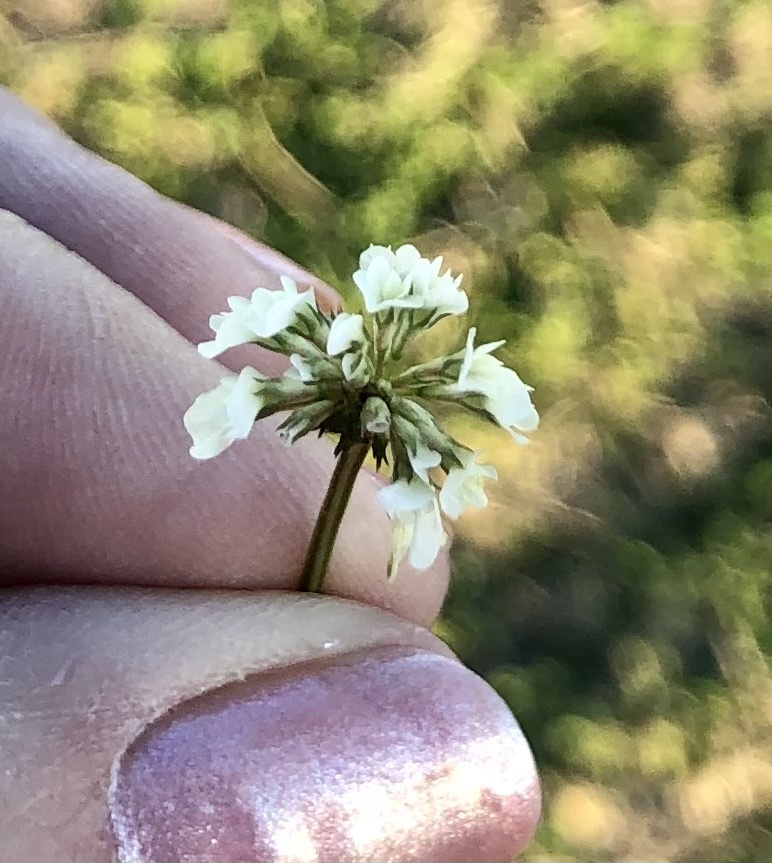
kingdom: Plantae
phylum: Tracheophyta
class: Magnoliopsida
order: Fabales
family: Fabaceae
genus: Trifolium
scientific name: Trifolium repens
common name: White clover
